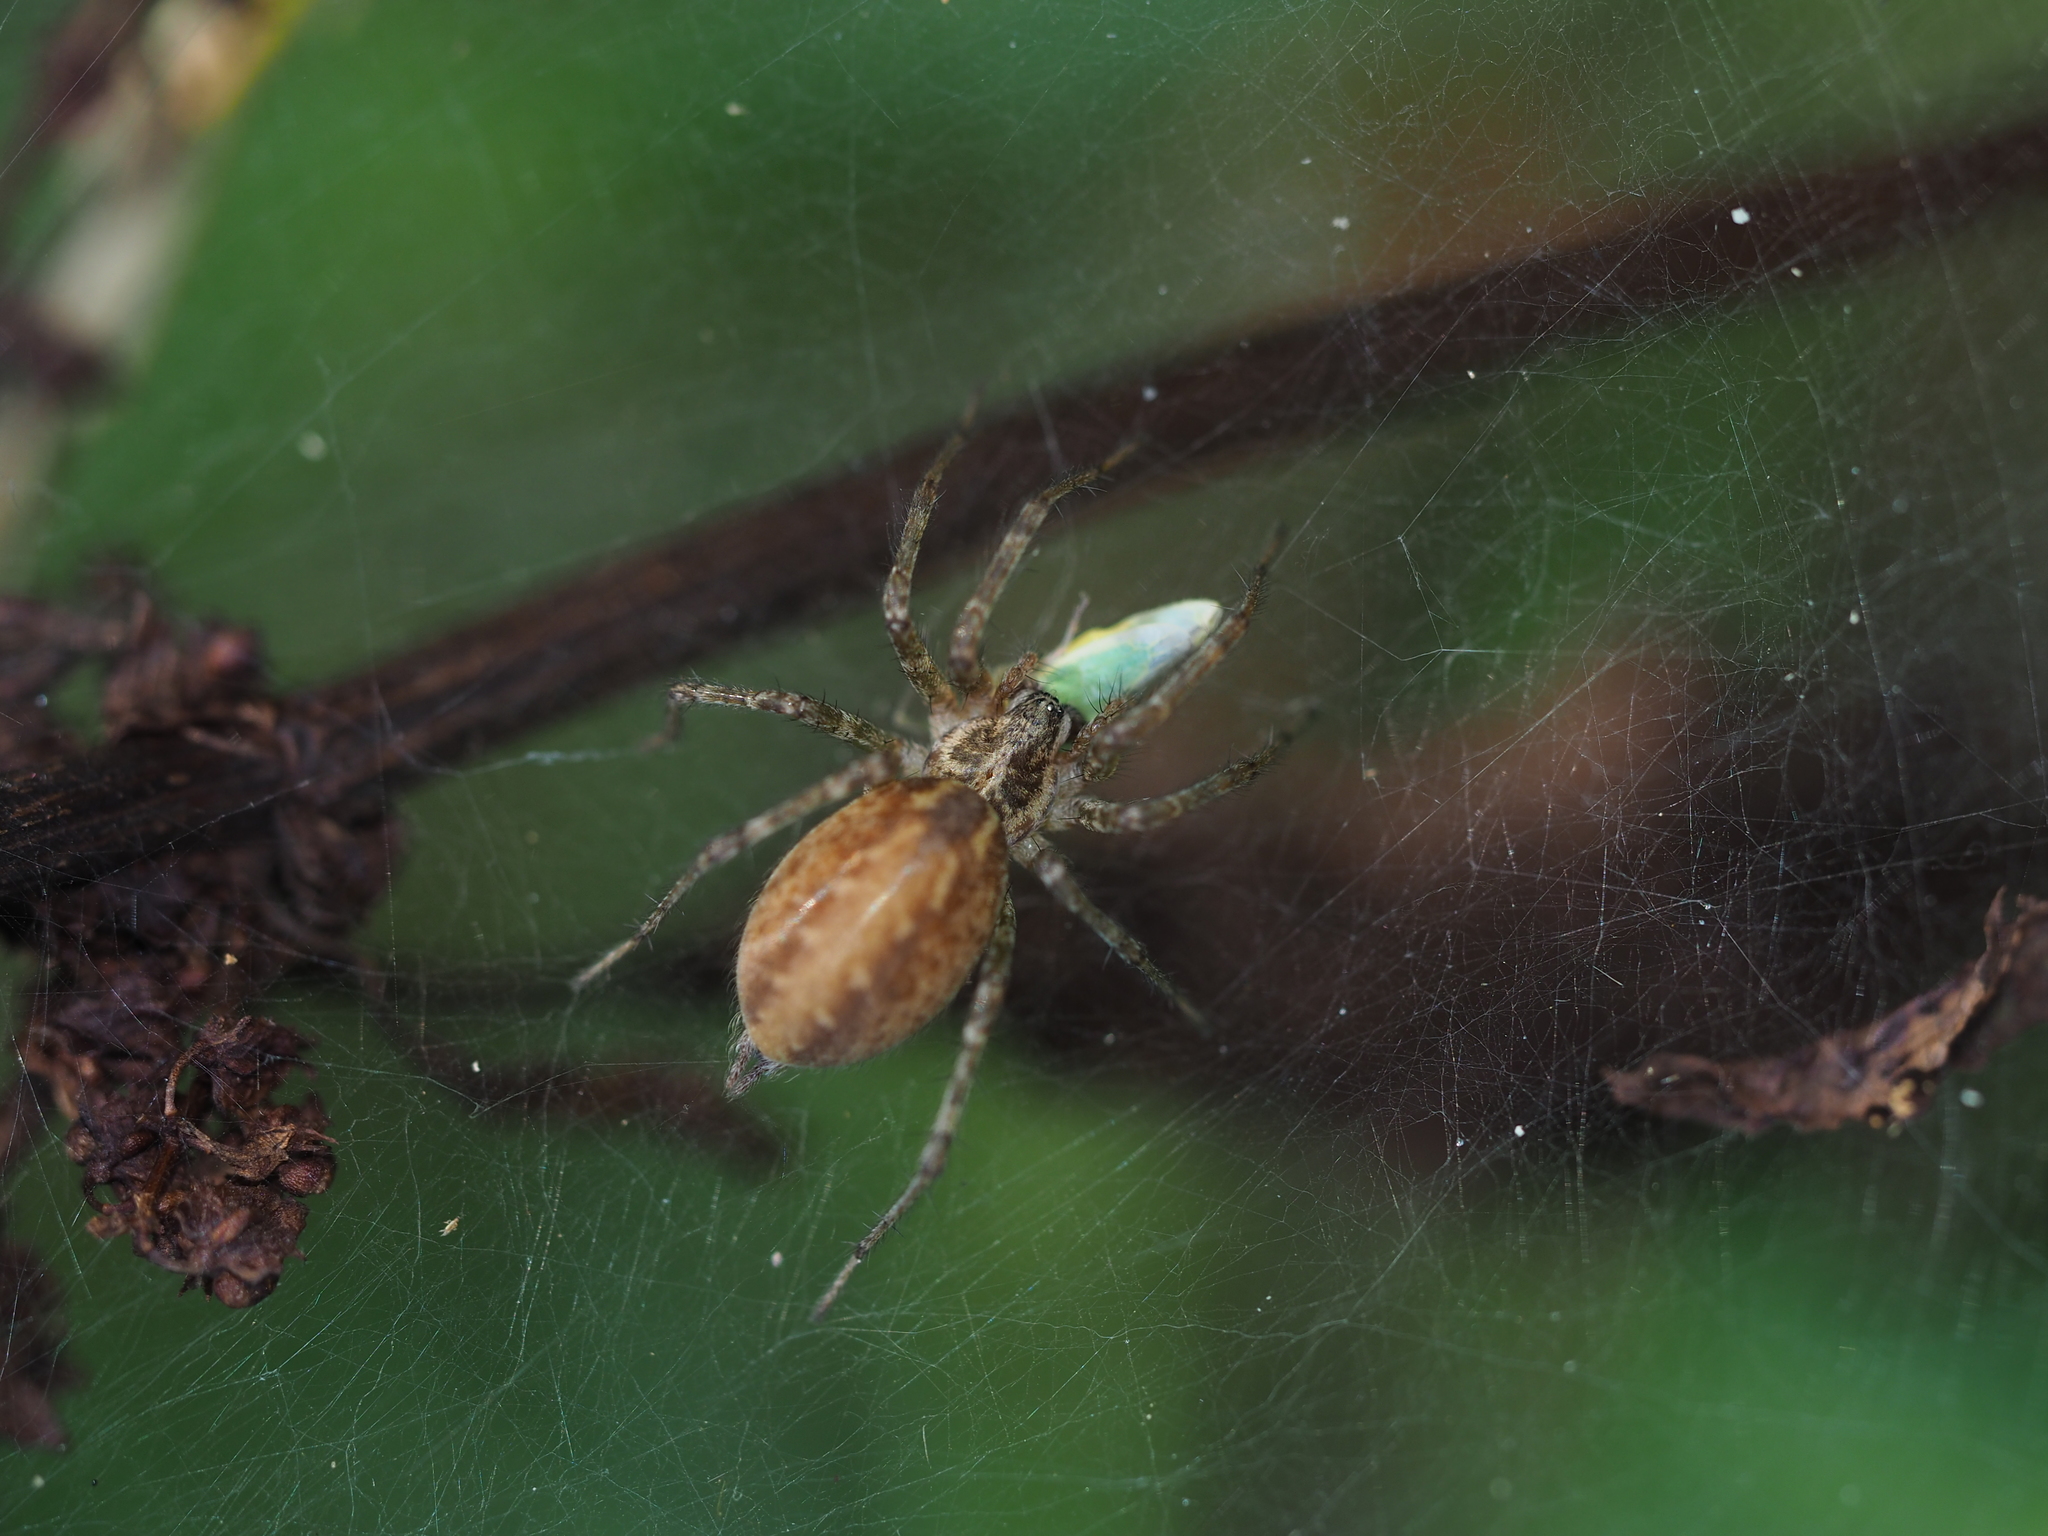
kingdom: Animalia
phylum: Arthropoda
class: Arachnida
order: Araneae
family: Agelenidae
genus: Allagelena
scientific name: Allagelena gracilens
